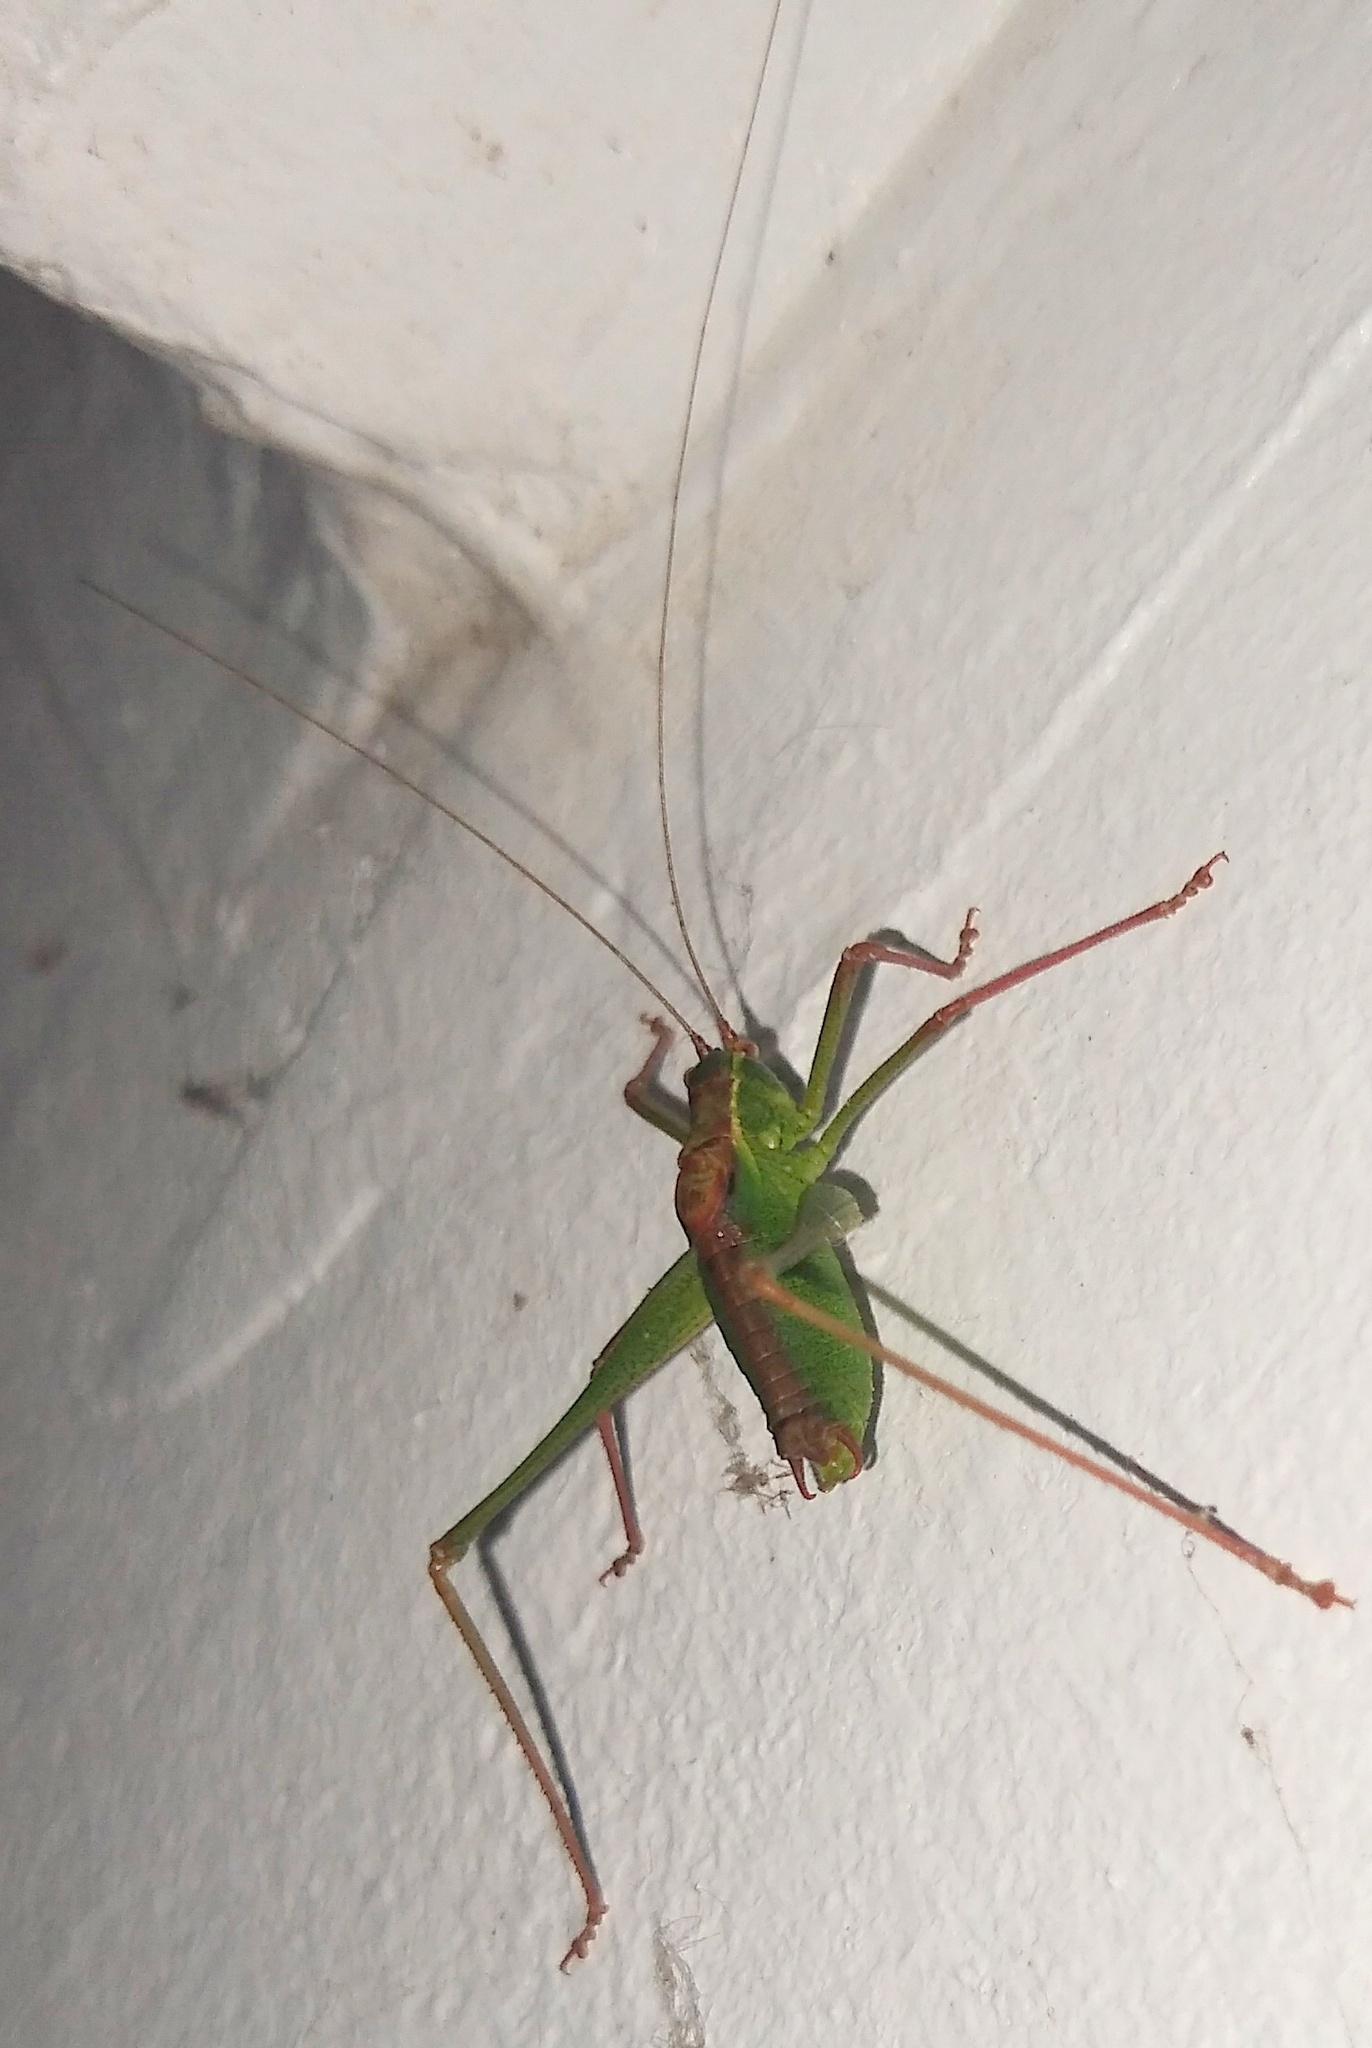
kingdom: Animalia
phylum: Arthropoda
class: Insecta
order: Orthoptera
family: Tettigoniidae
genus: Leptophyes
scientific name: Leptophyes punctatissima
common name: Speckled bush-cricket
